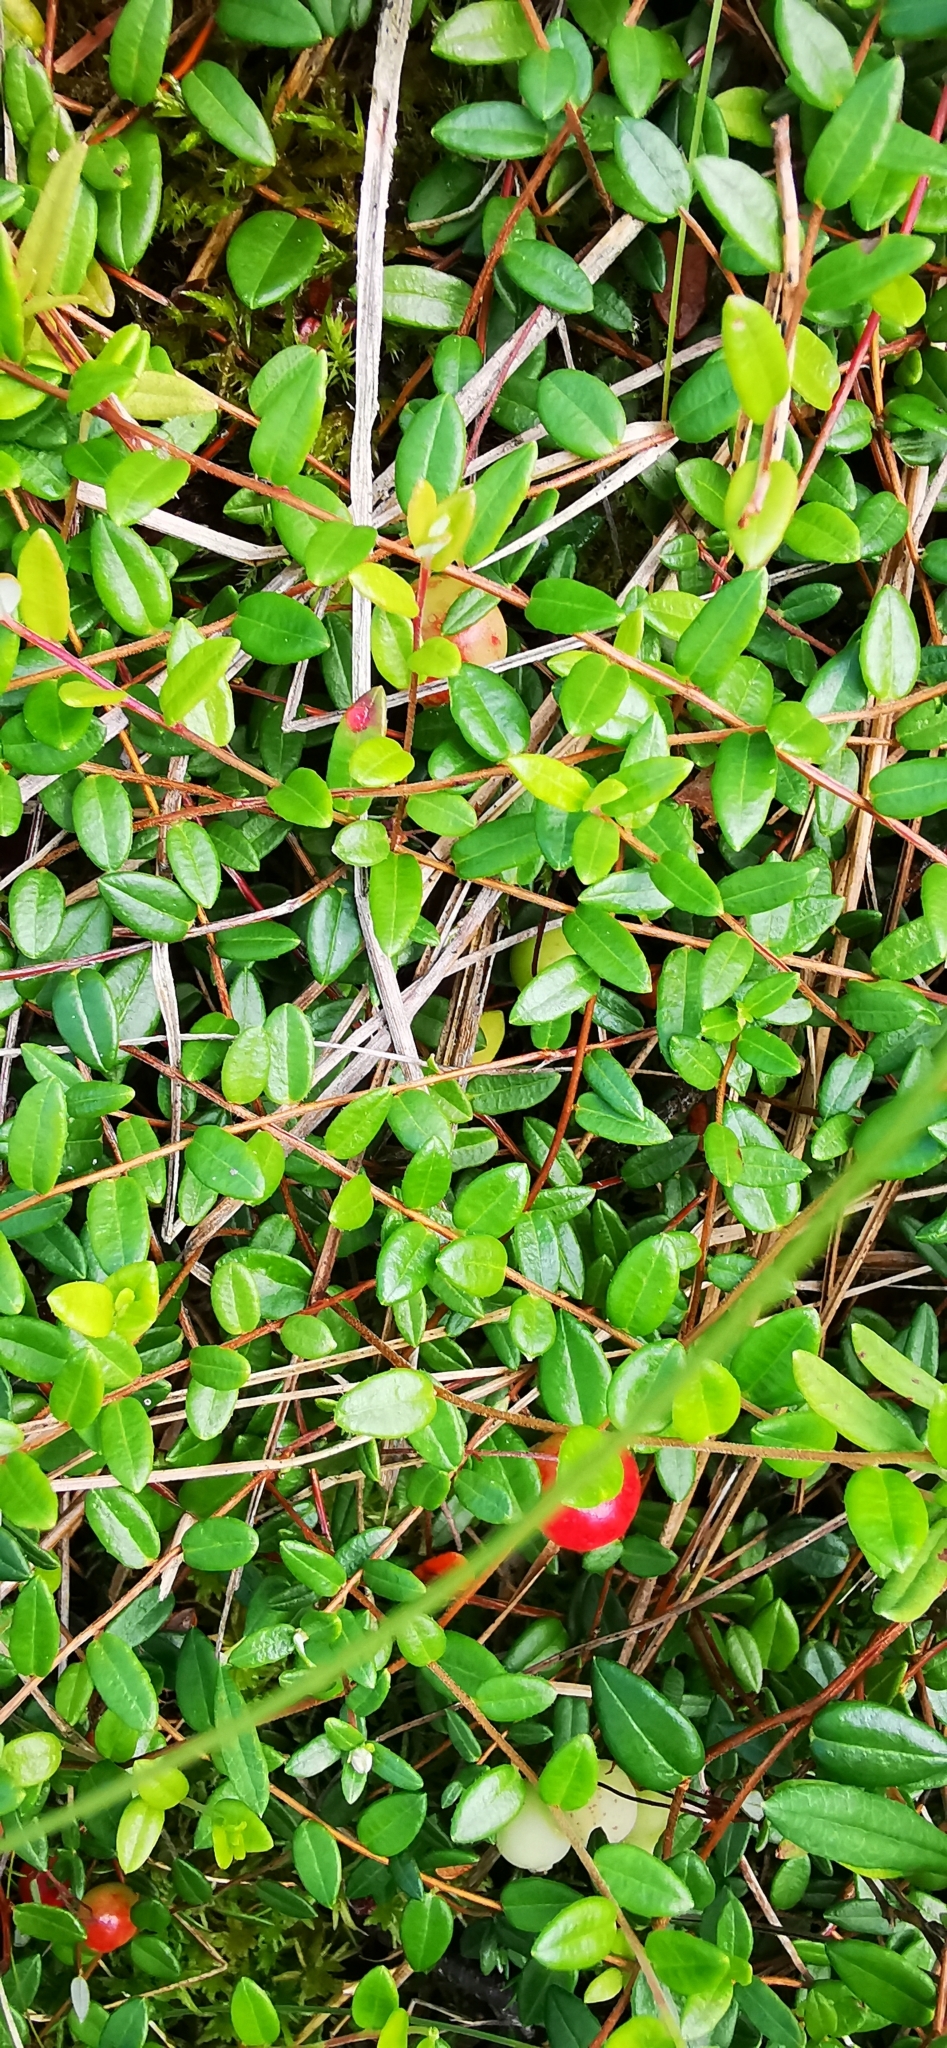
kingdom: Plantae
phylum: Tracheophyta
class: Magnoliopsida
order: Ericales
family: Ericaceae
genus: Vaccinium
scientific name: Vaccinium oxycoccos
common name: Cranberry
